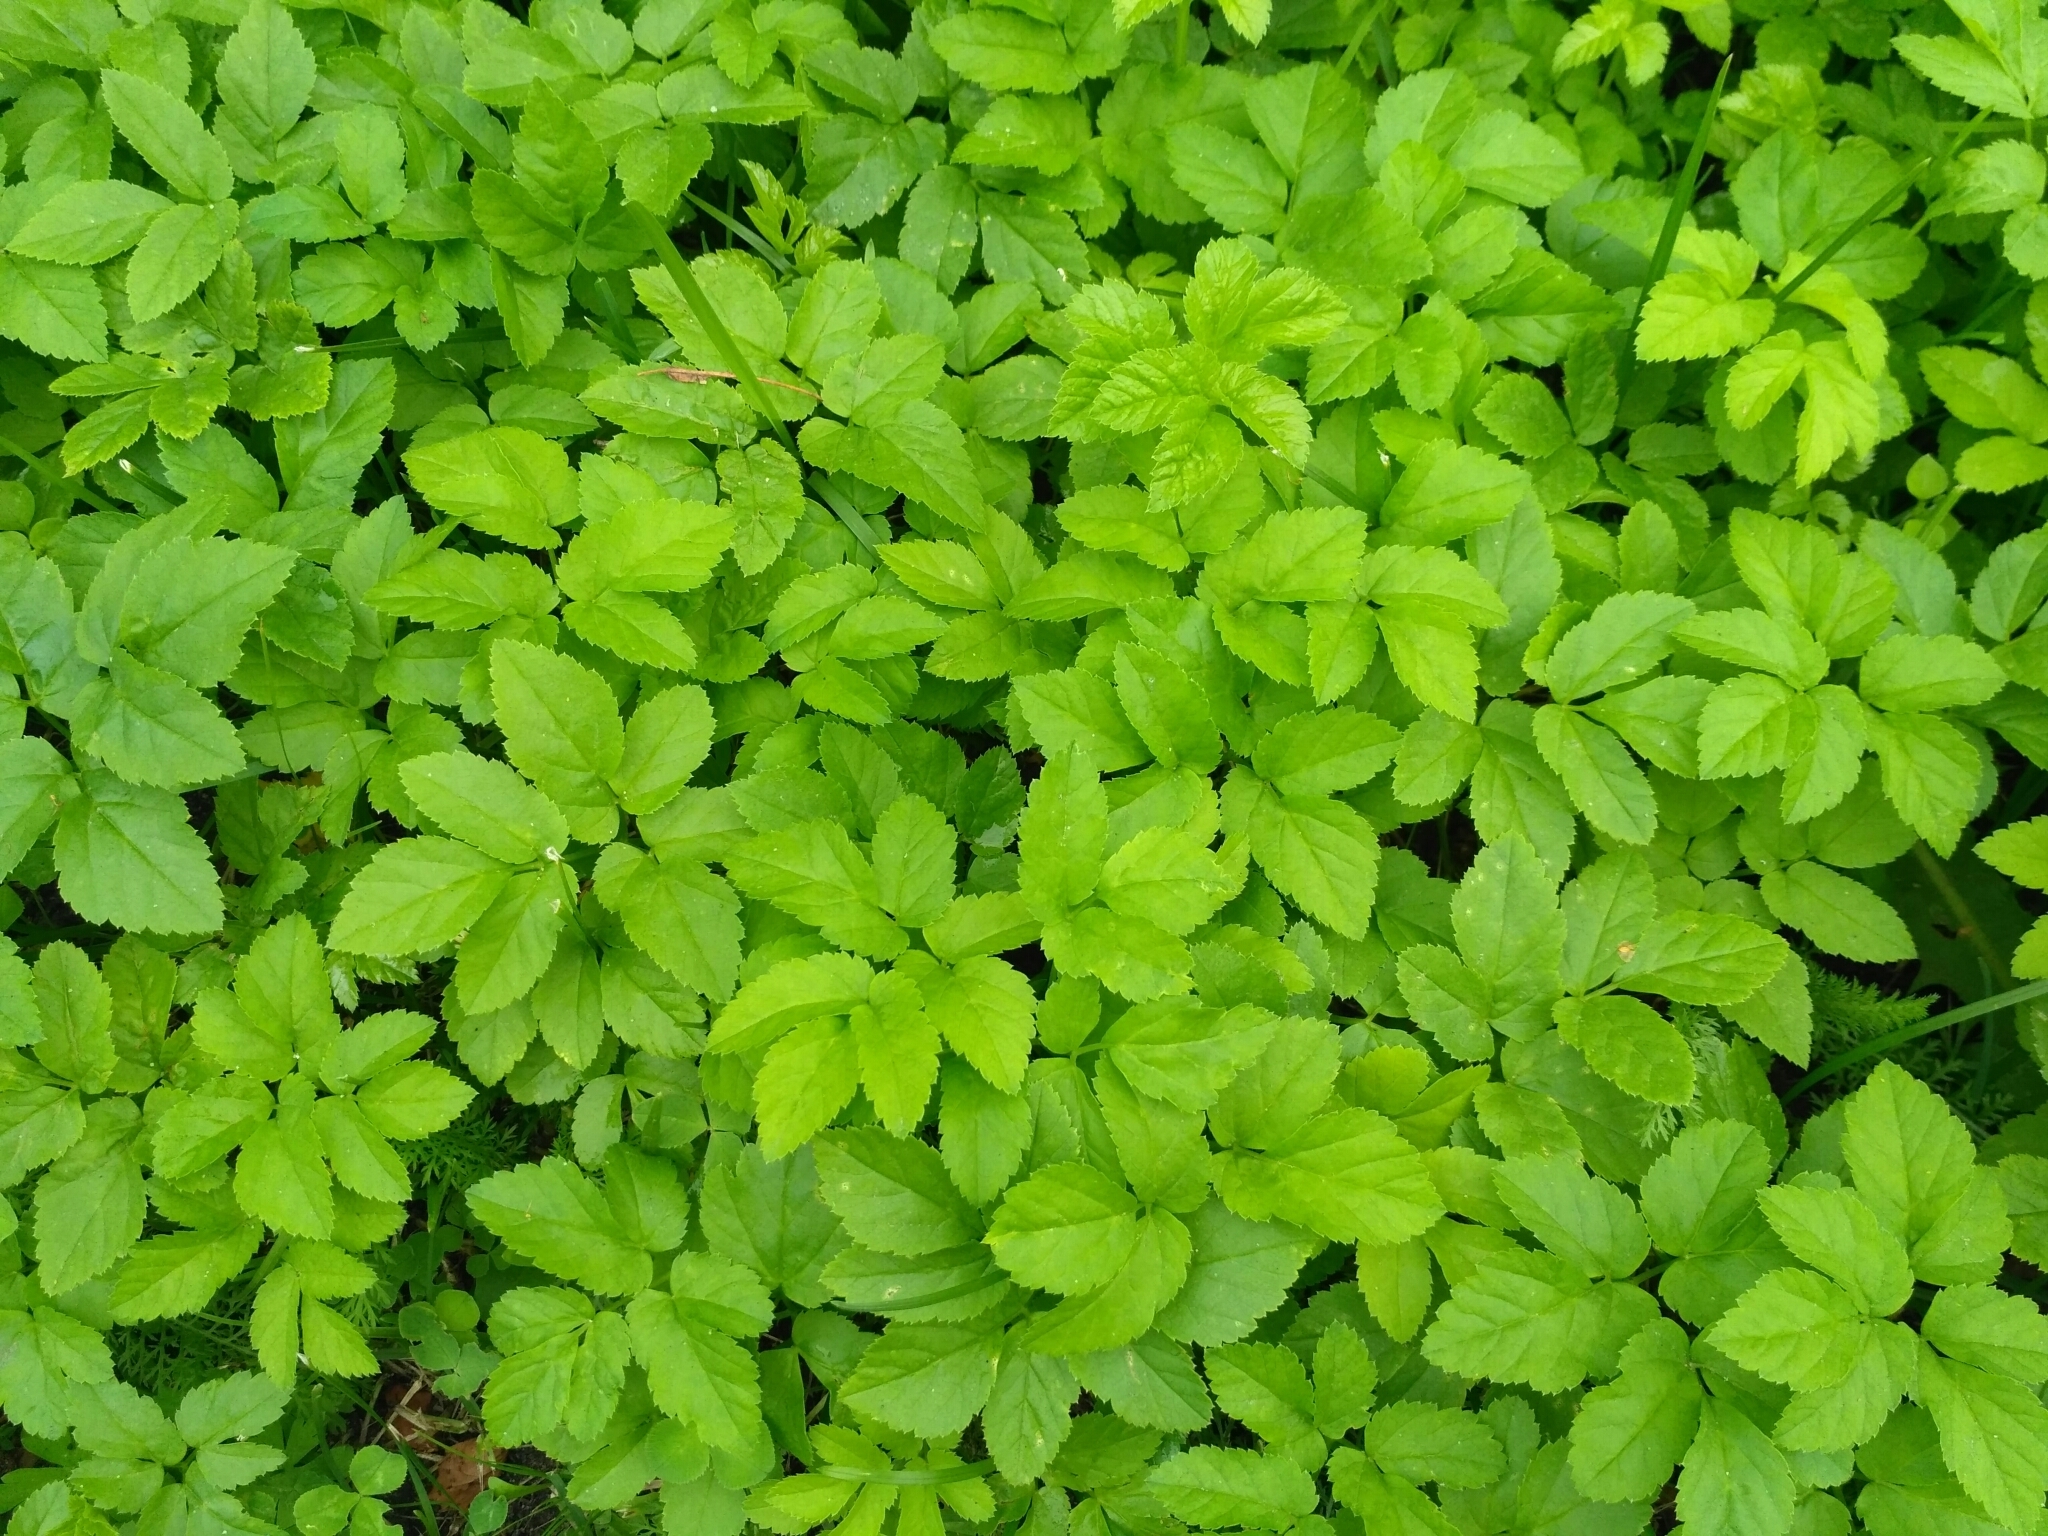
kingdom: Plantae
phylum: Tracheophyta
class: Magnoliopsida
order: Apiales
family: Apiaceae
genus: Aegopodium
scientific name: Aegopodium podagraria
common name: Ground-elder
